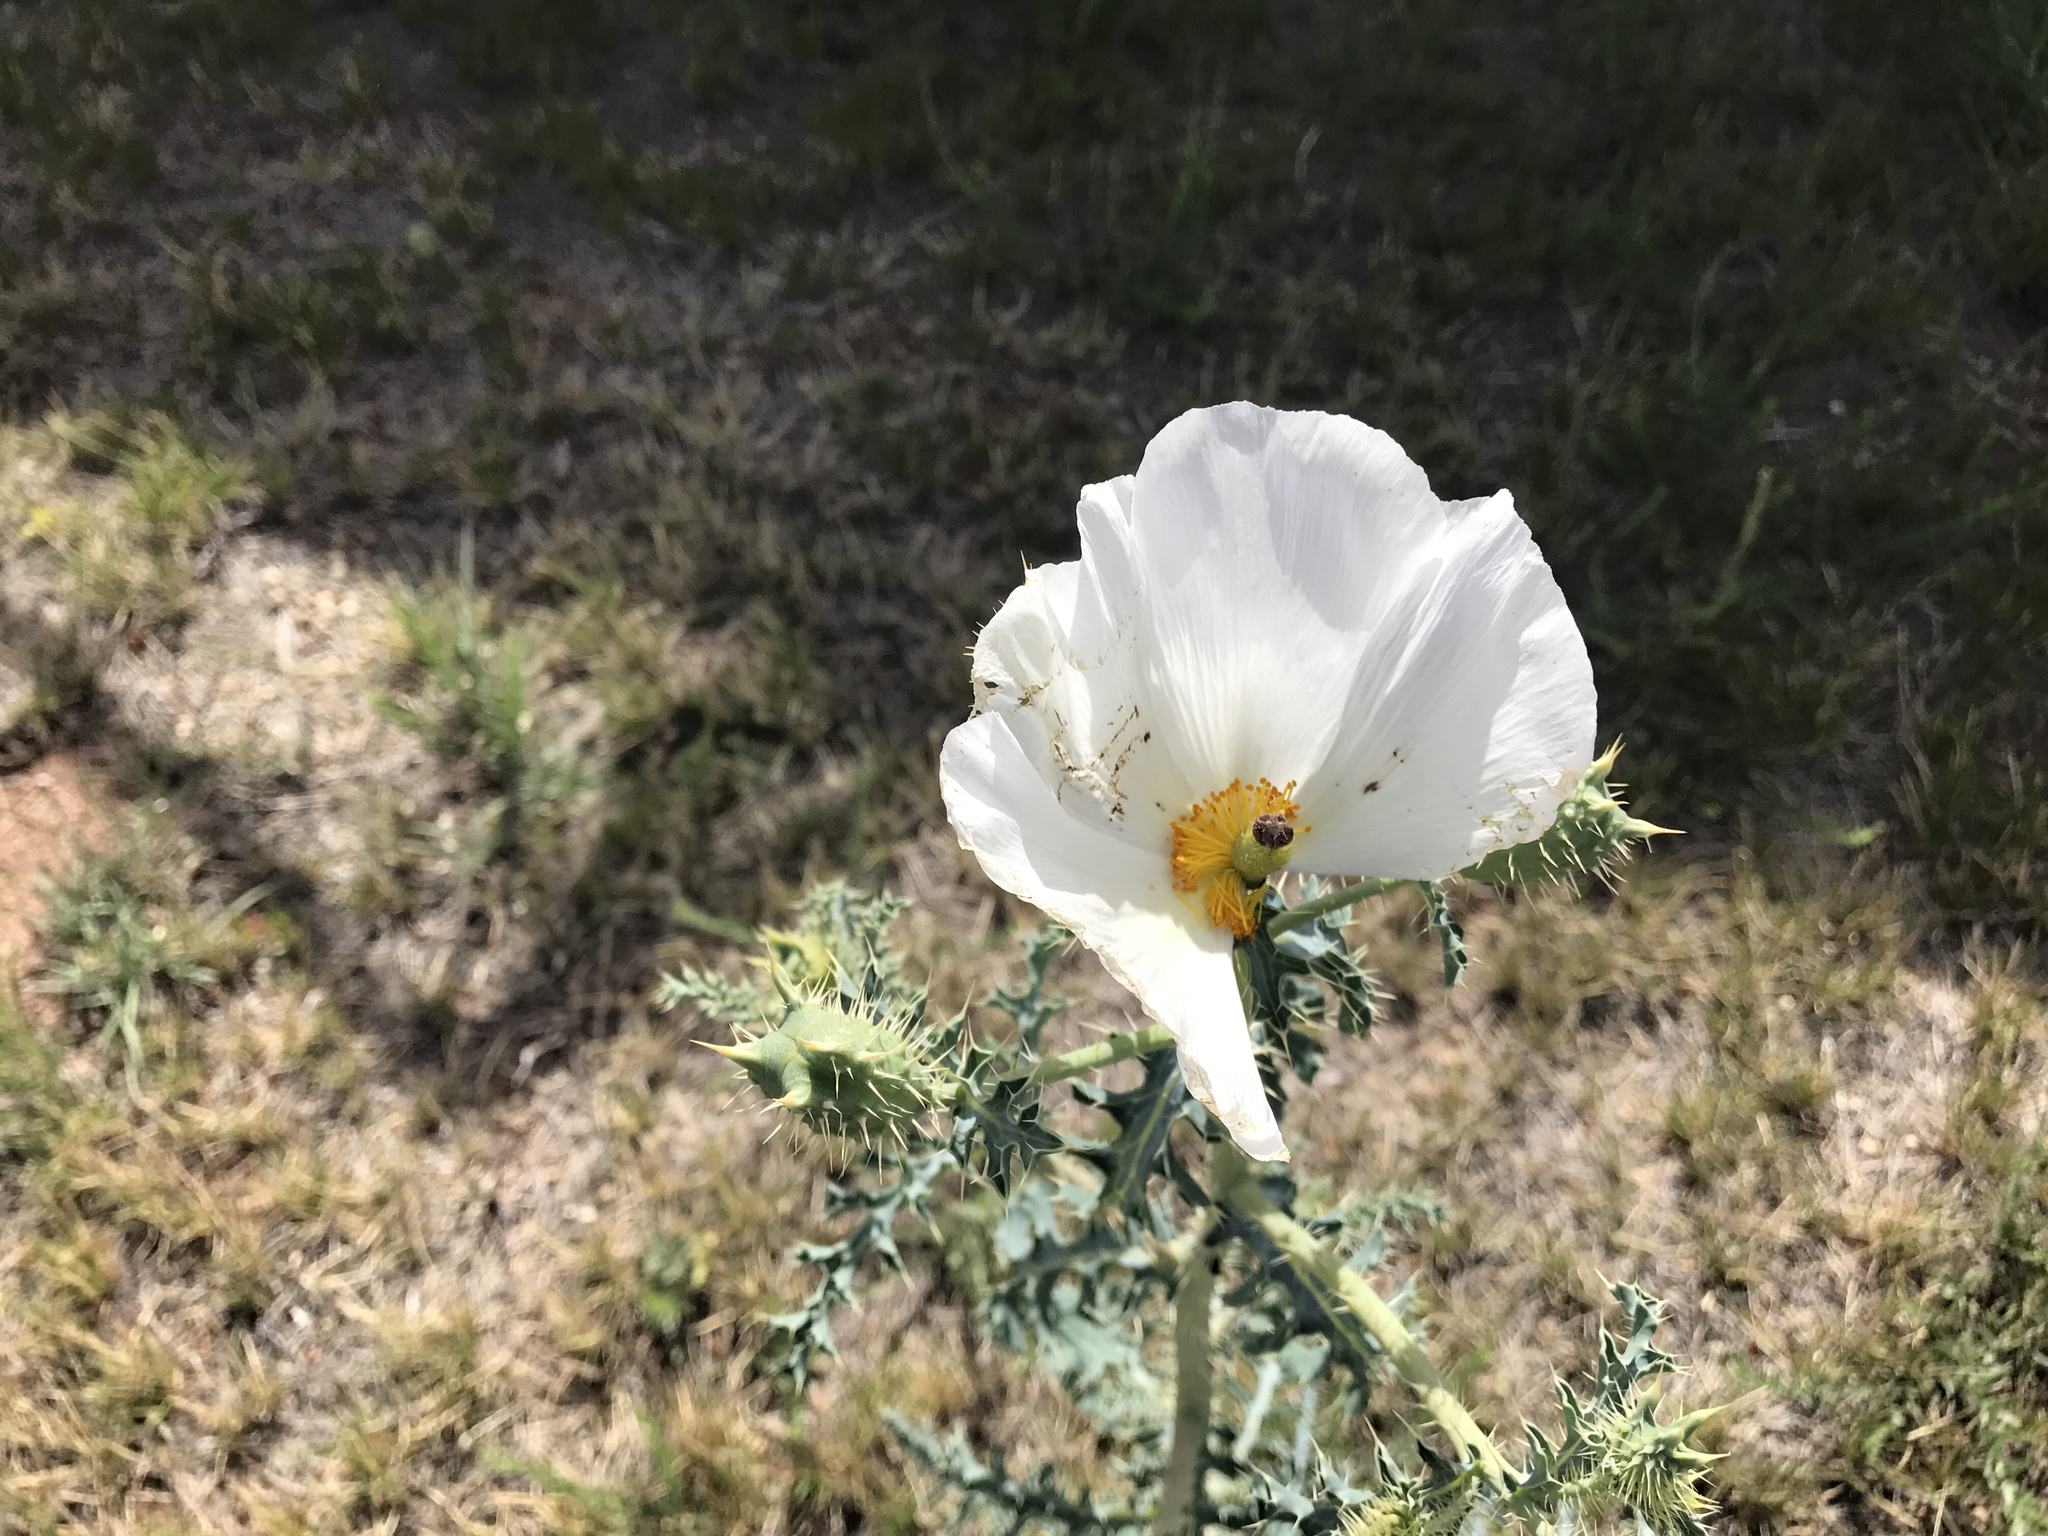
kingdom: Plantae
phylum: Tracheophyta
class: Magnoliopsida
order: Ranunculales
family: Papaveraceae
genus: Argemone
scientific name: Argemone pleiacantha
